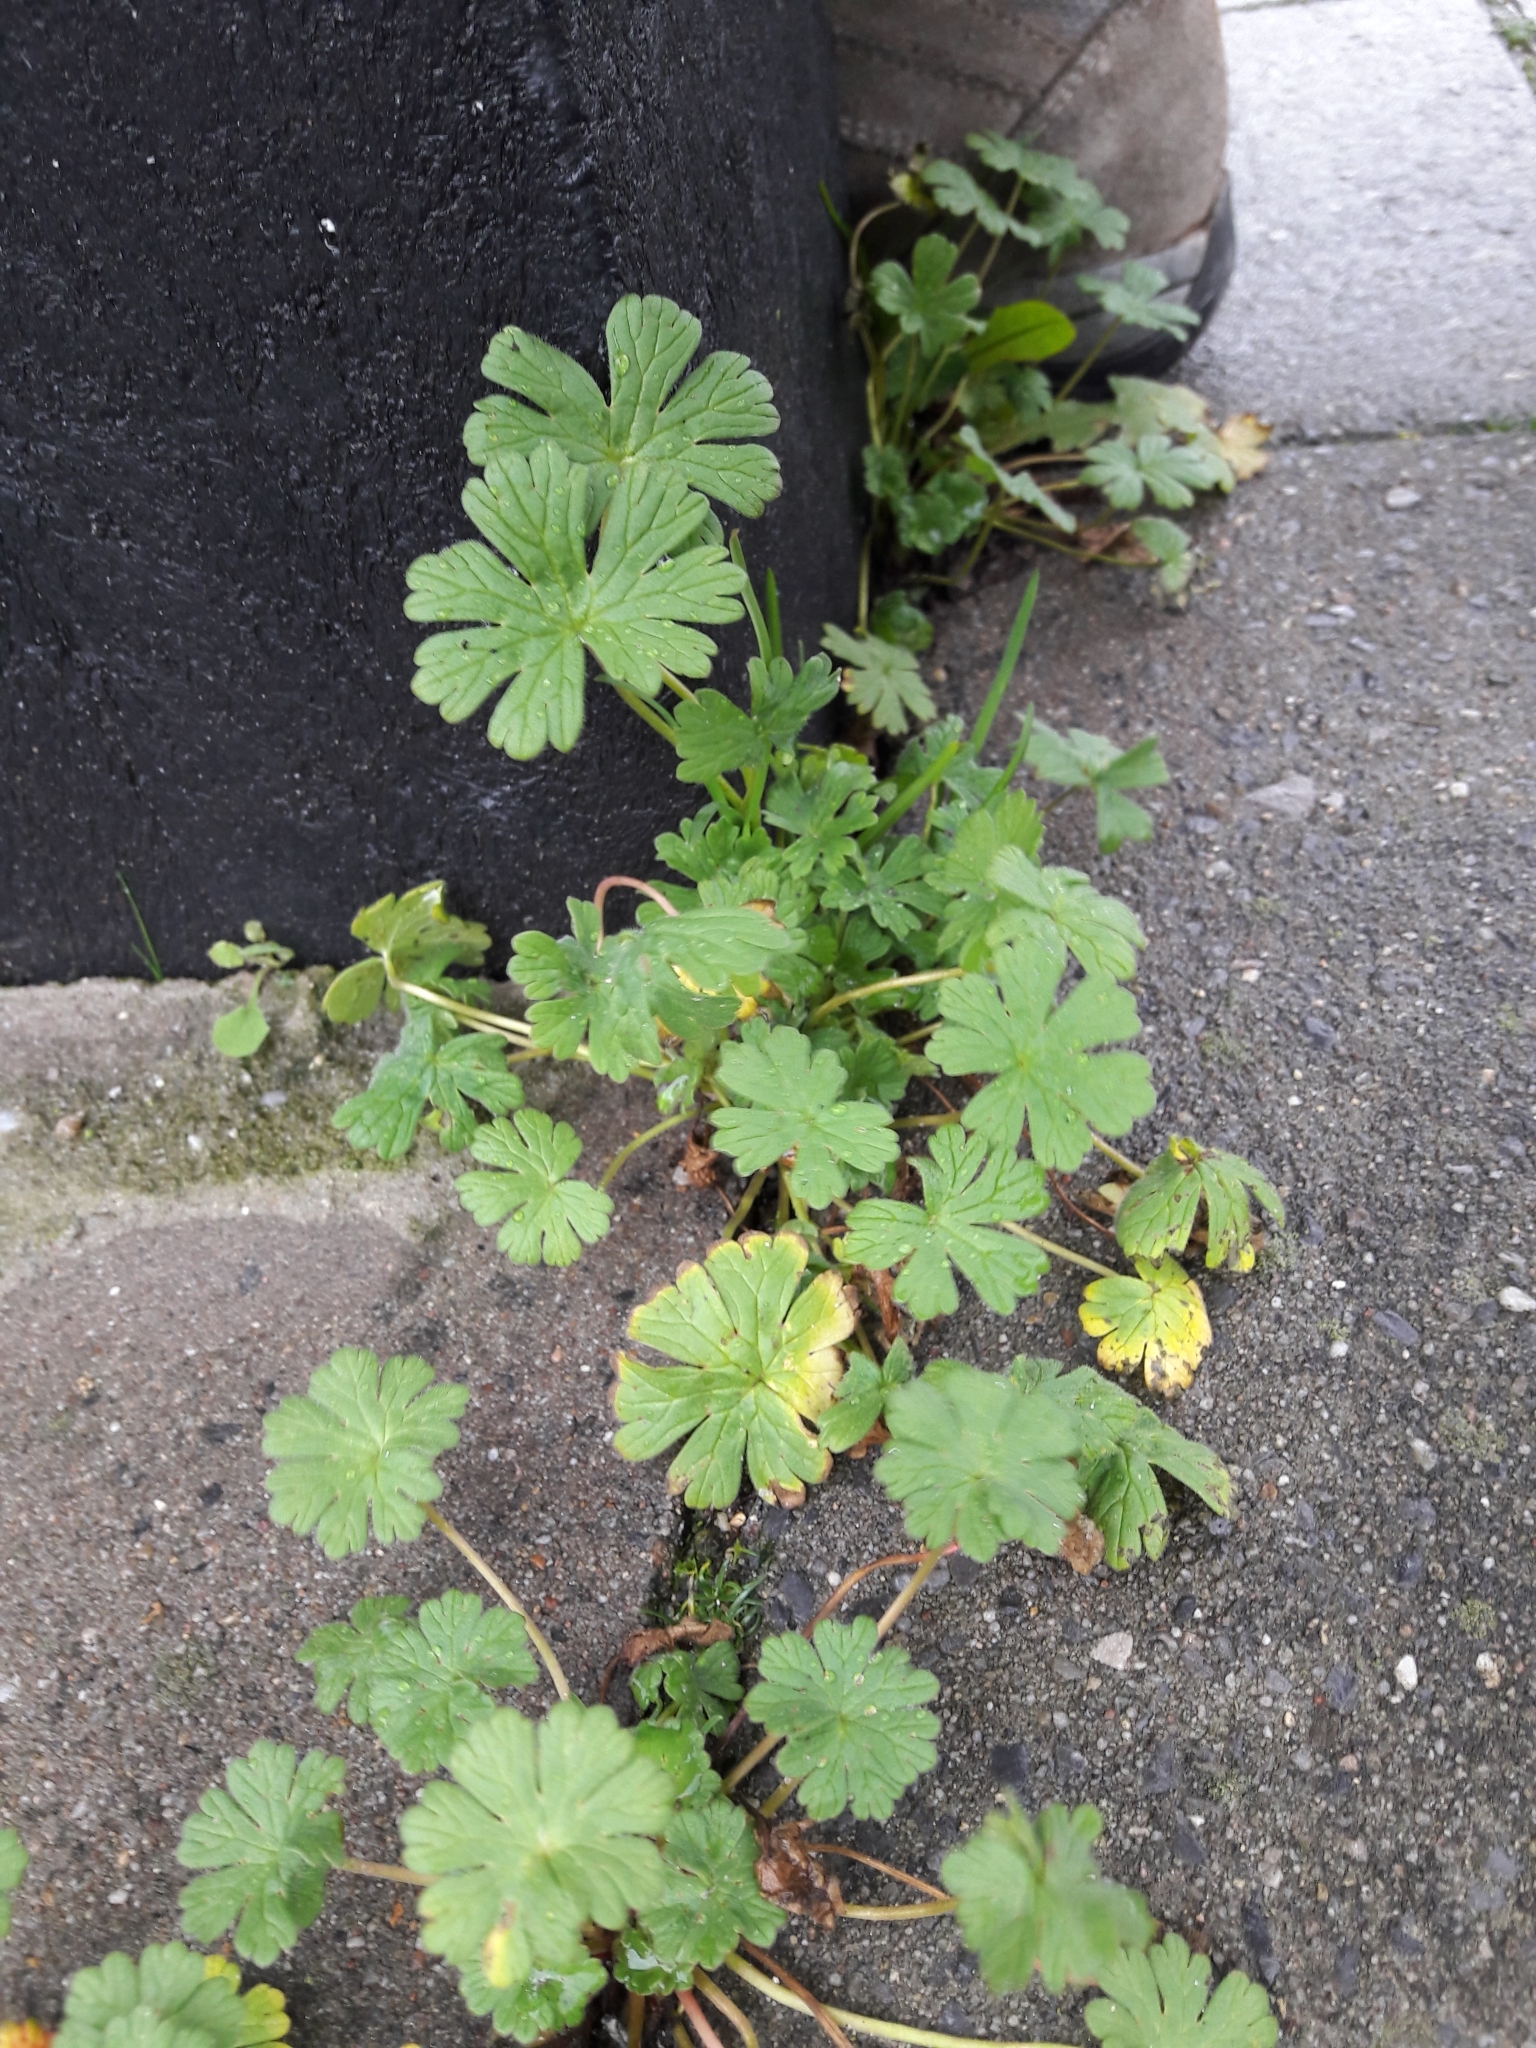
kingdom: Plantae
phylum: Tracheophyta
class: Magnoliopsida
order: Geraniales
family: Geraniaceae
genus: Geranium
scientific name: Geranium molle
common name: Dove's-foot crane's-bill
